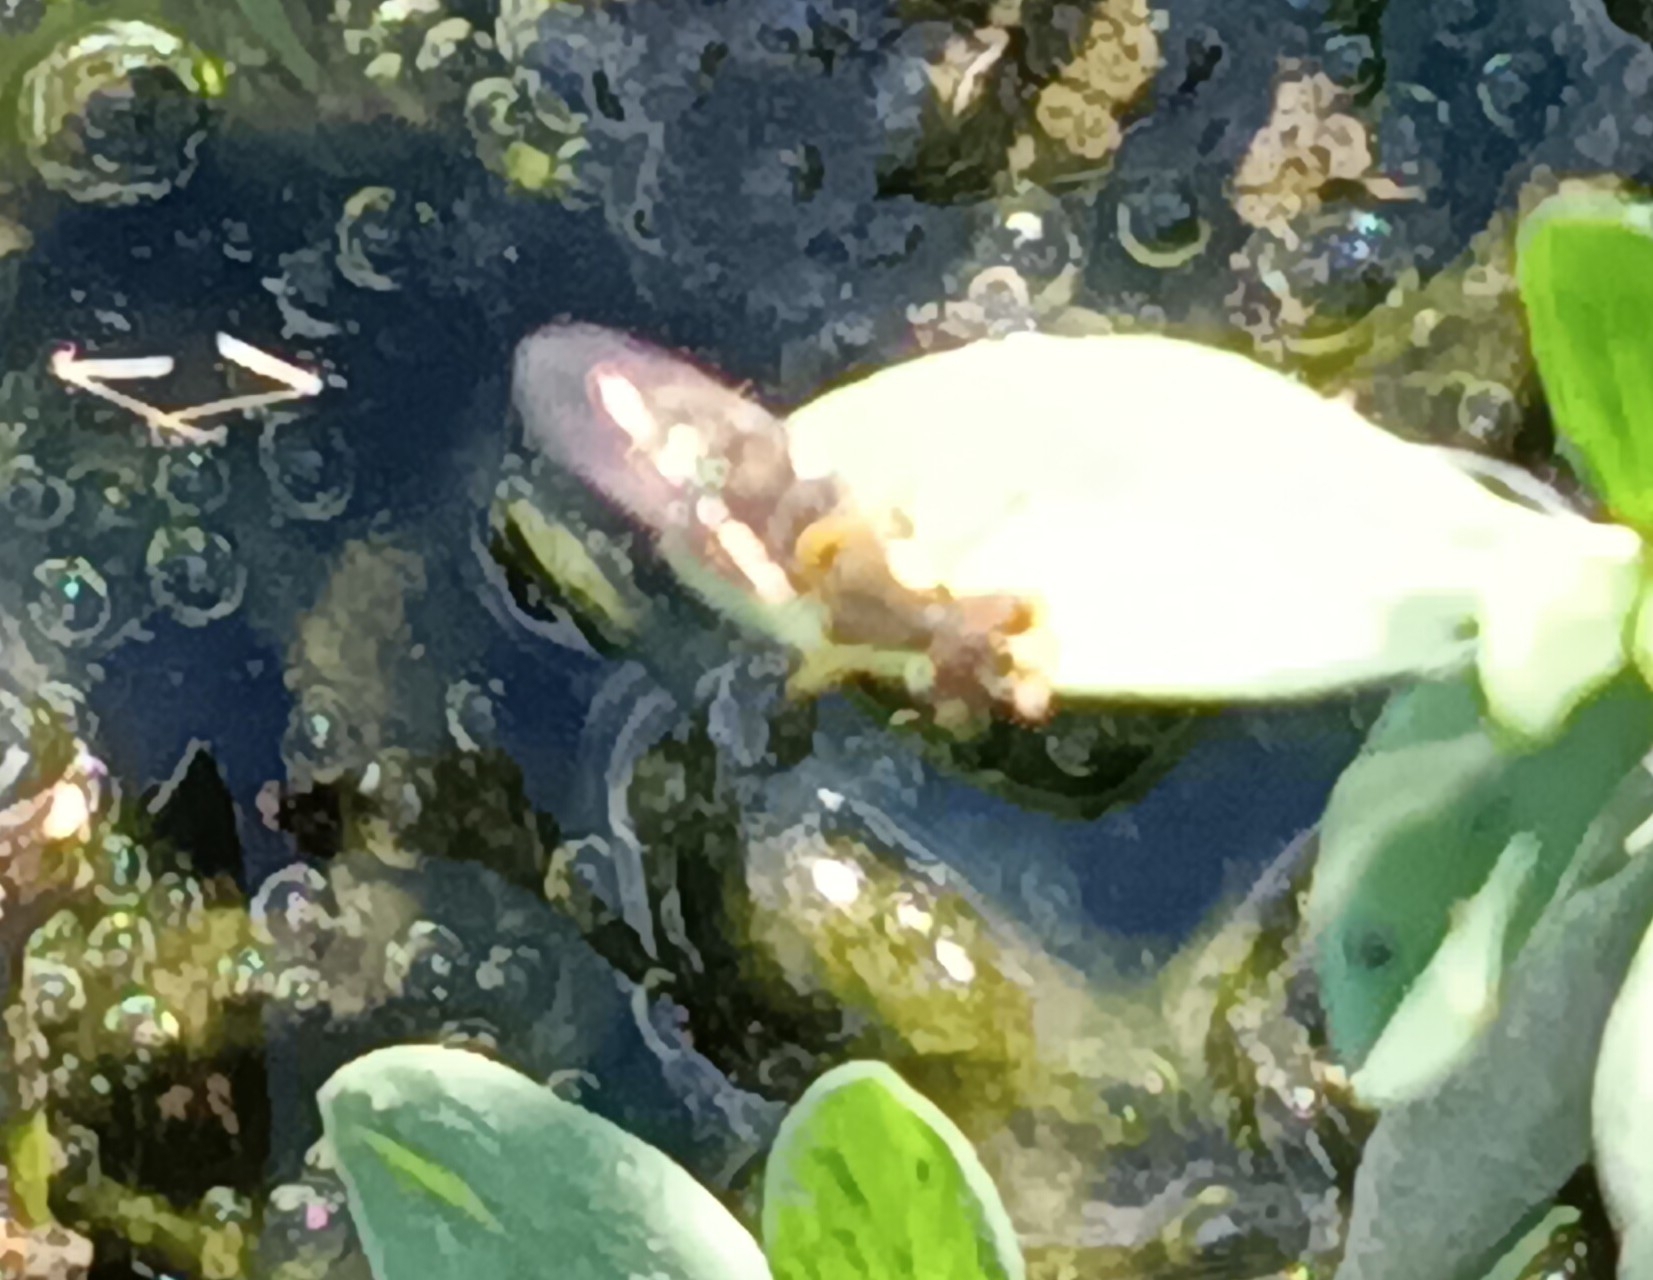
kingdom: Animalia
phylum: Arthropoda
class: Insecta
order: Diptera
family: Syrphidae
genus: Toxomerus
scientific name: Toxomerus
